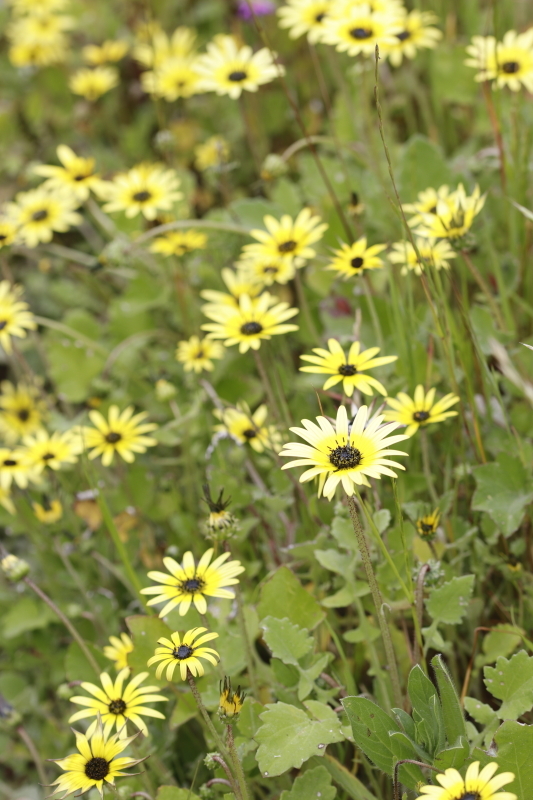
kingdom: Plantae
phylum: Tracheophyta
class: Magnoliopsida
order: Asterales
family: Asteraceae
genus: Arctotheca
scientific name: Arctotheca calendula
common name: Capeweed
